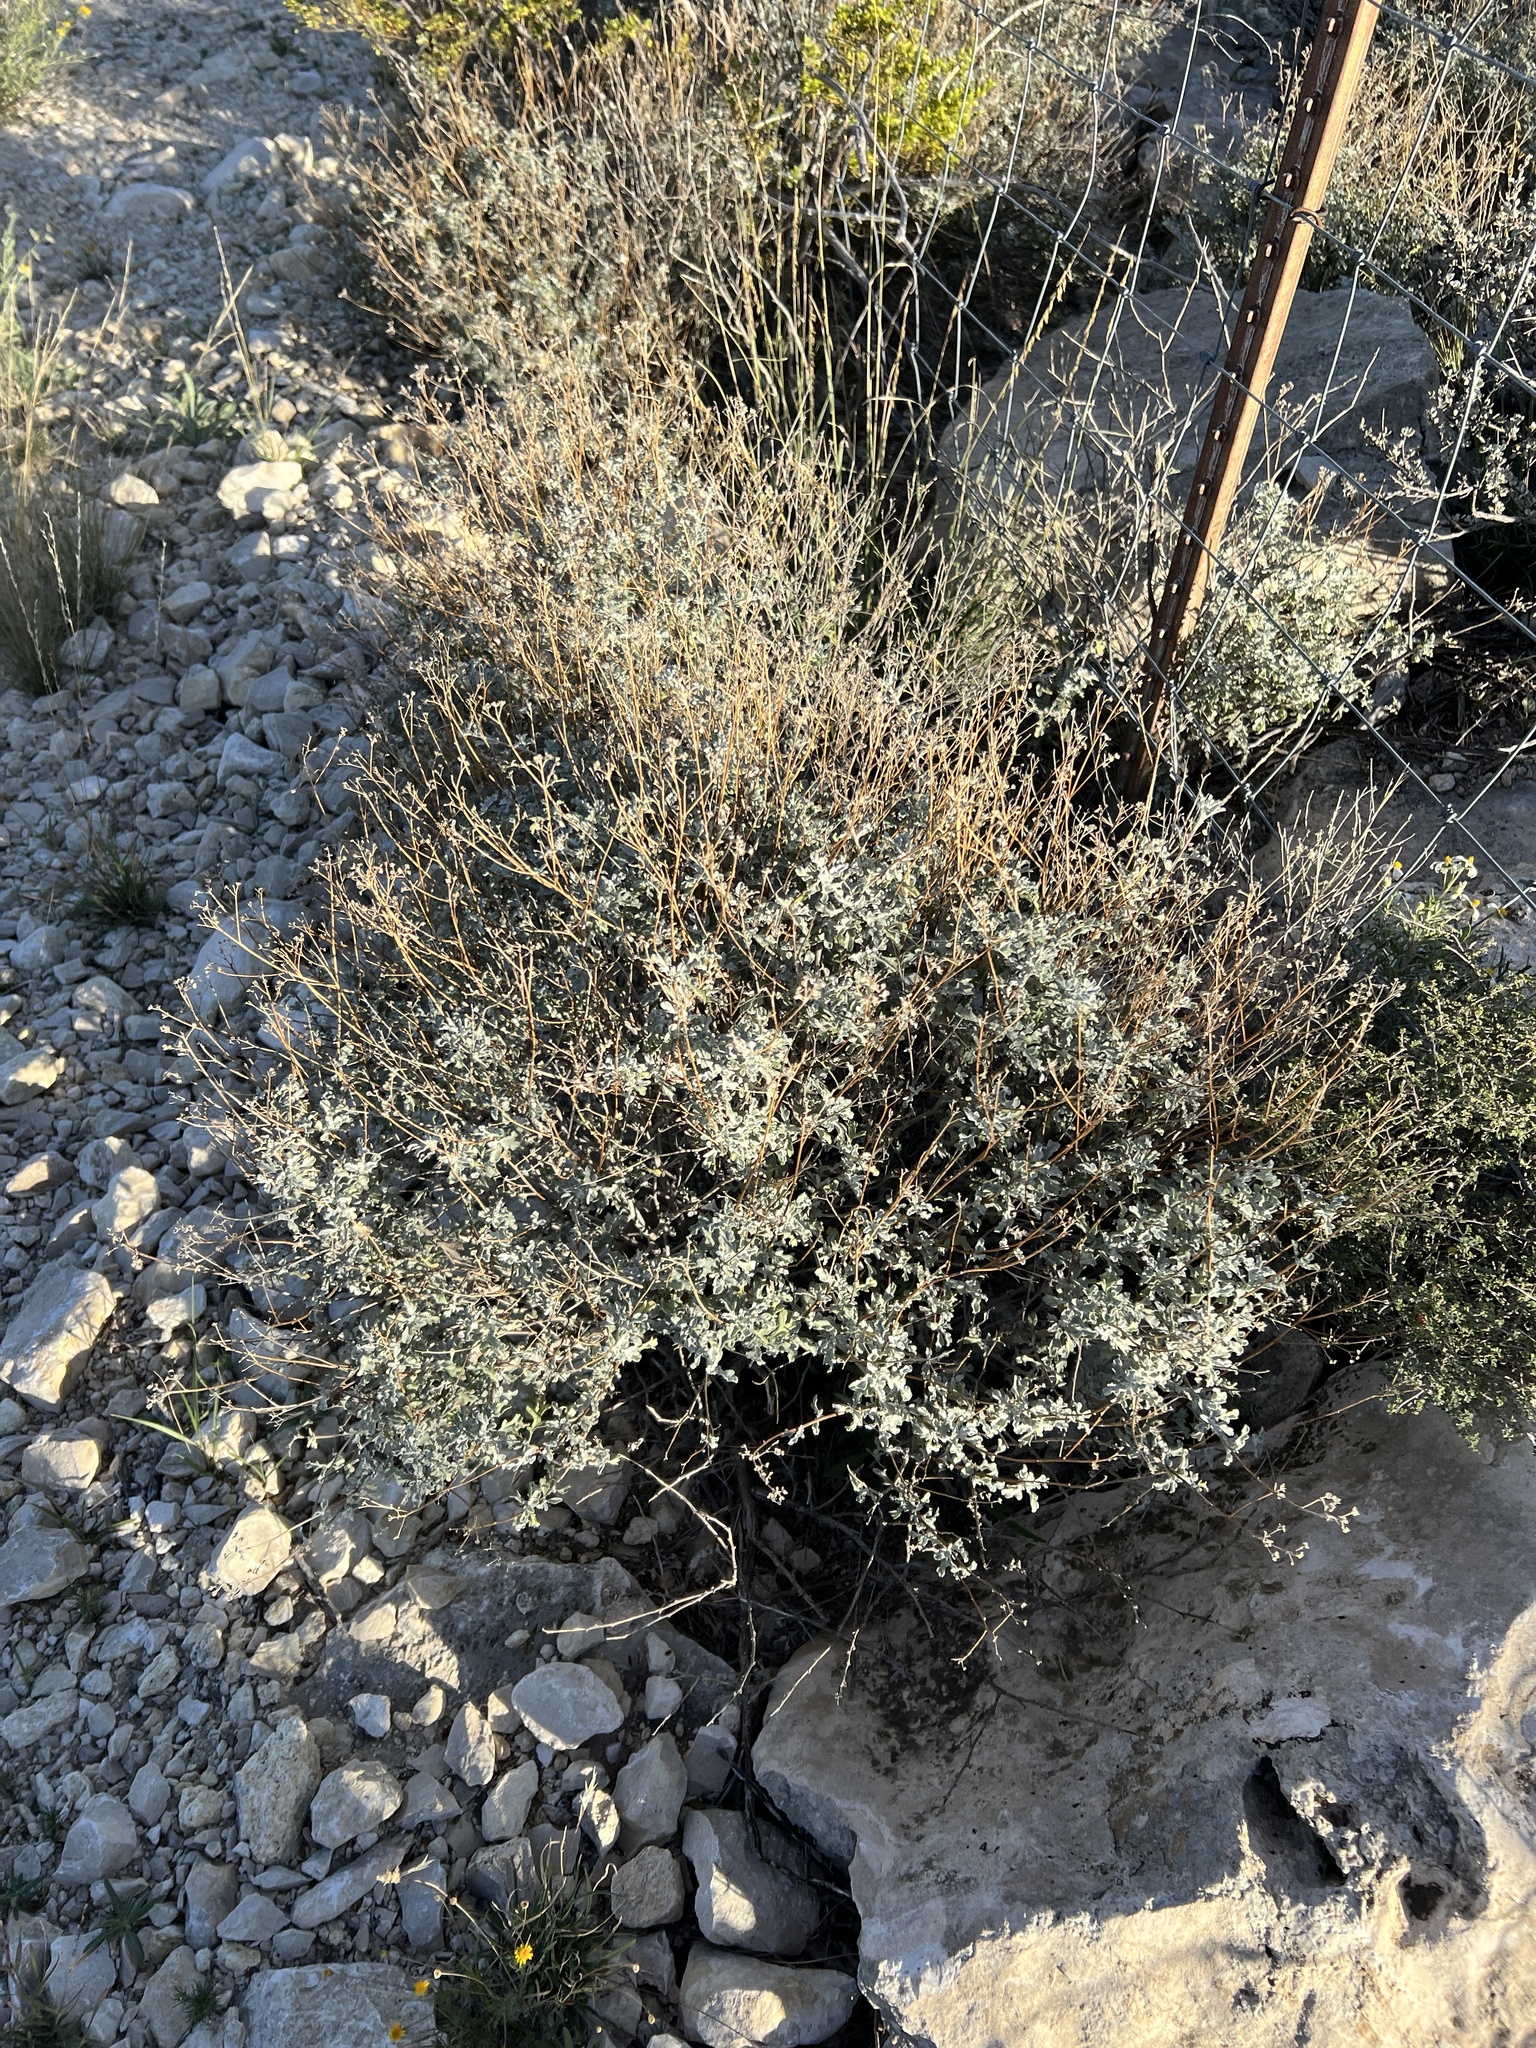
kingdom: Plantae
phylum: Tracheophyta
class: Magnoliopsida
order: Asterales
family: Asteraceae
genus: Parthenium
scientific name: Parthenium incanum
